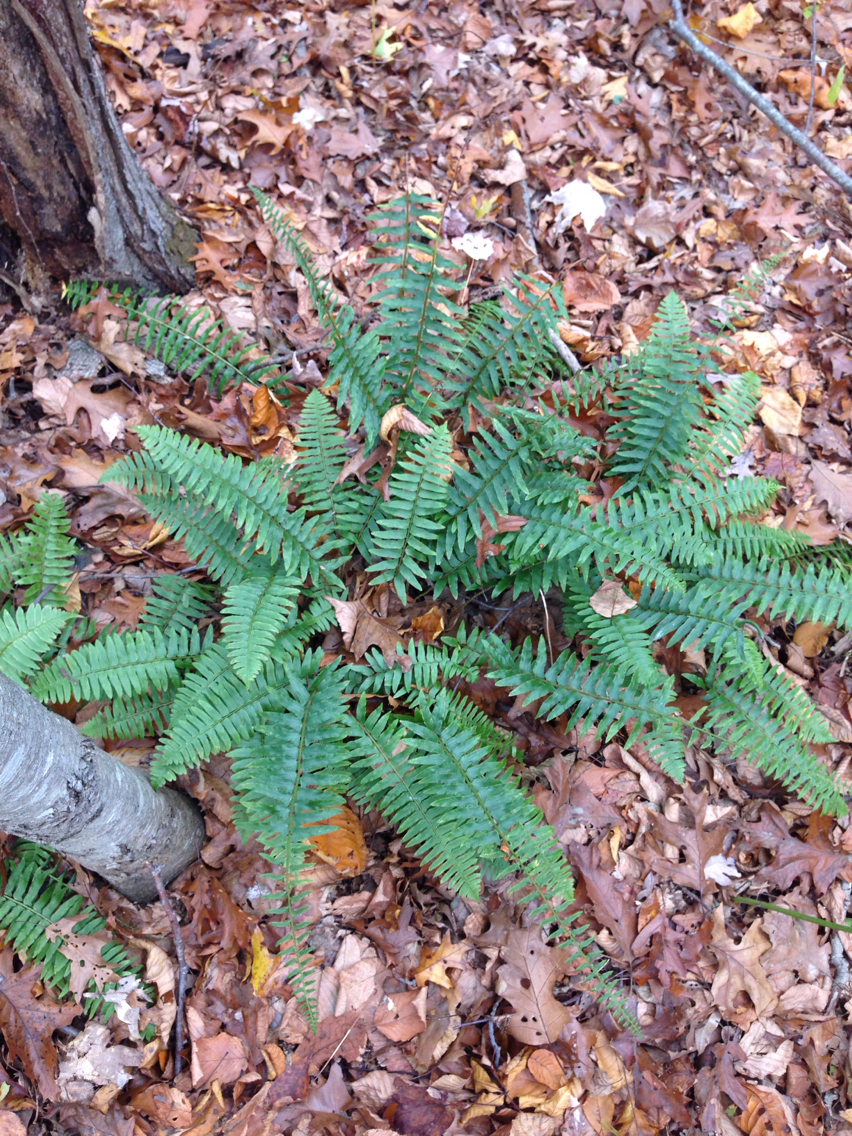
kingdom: Plantae
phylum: Tracheophyta
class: Polypodiopsida
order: Polypodiales
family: Dryopteridaceae
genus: Polystichum
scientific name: Polystichum acrostichoides
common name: Christmas fern
